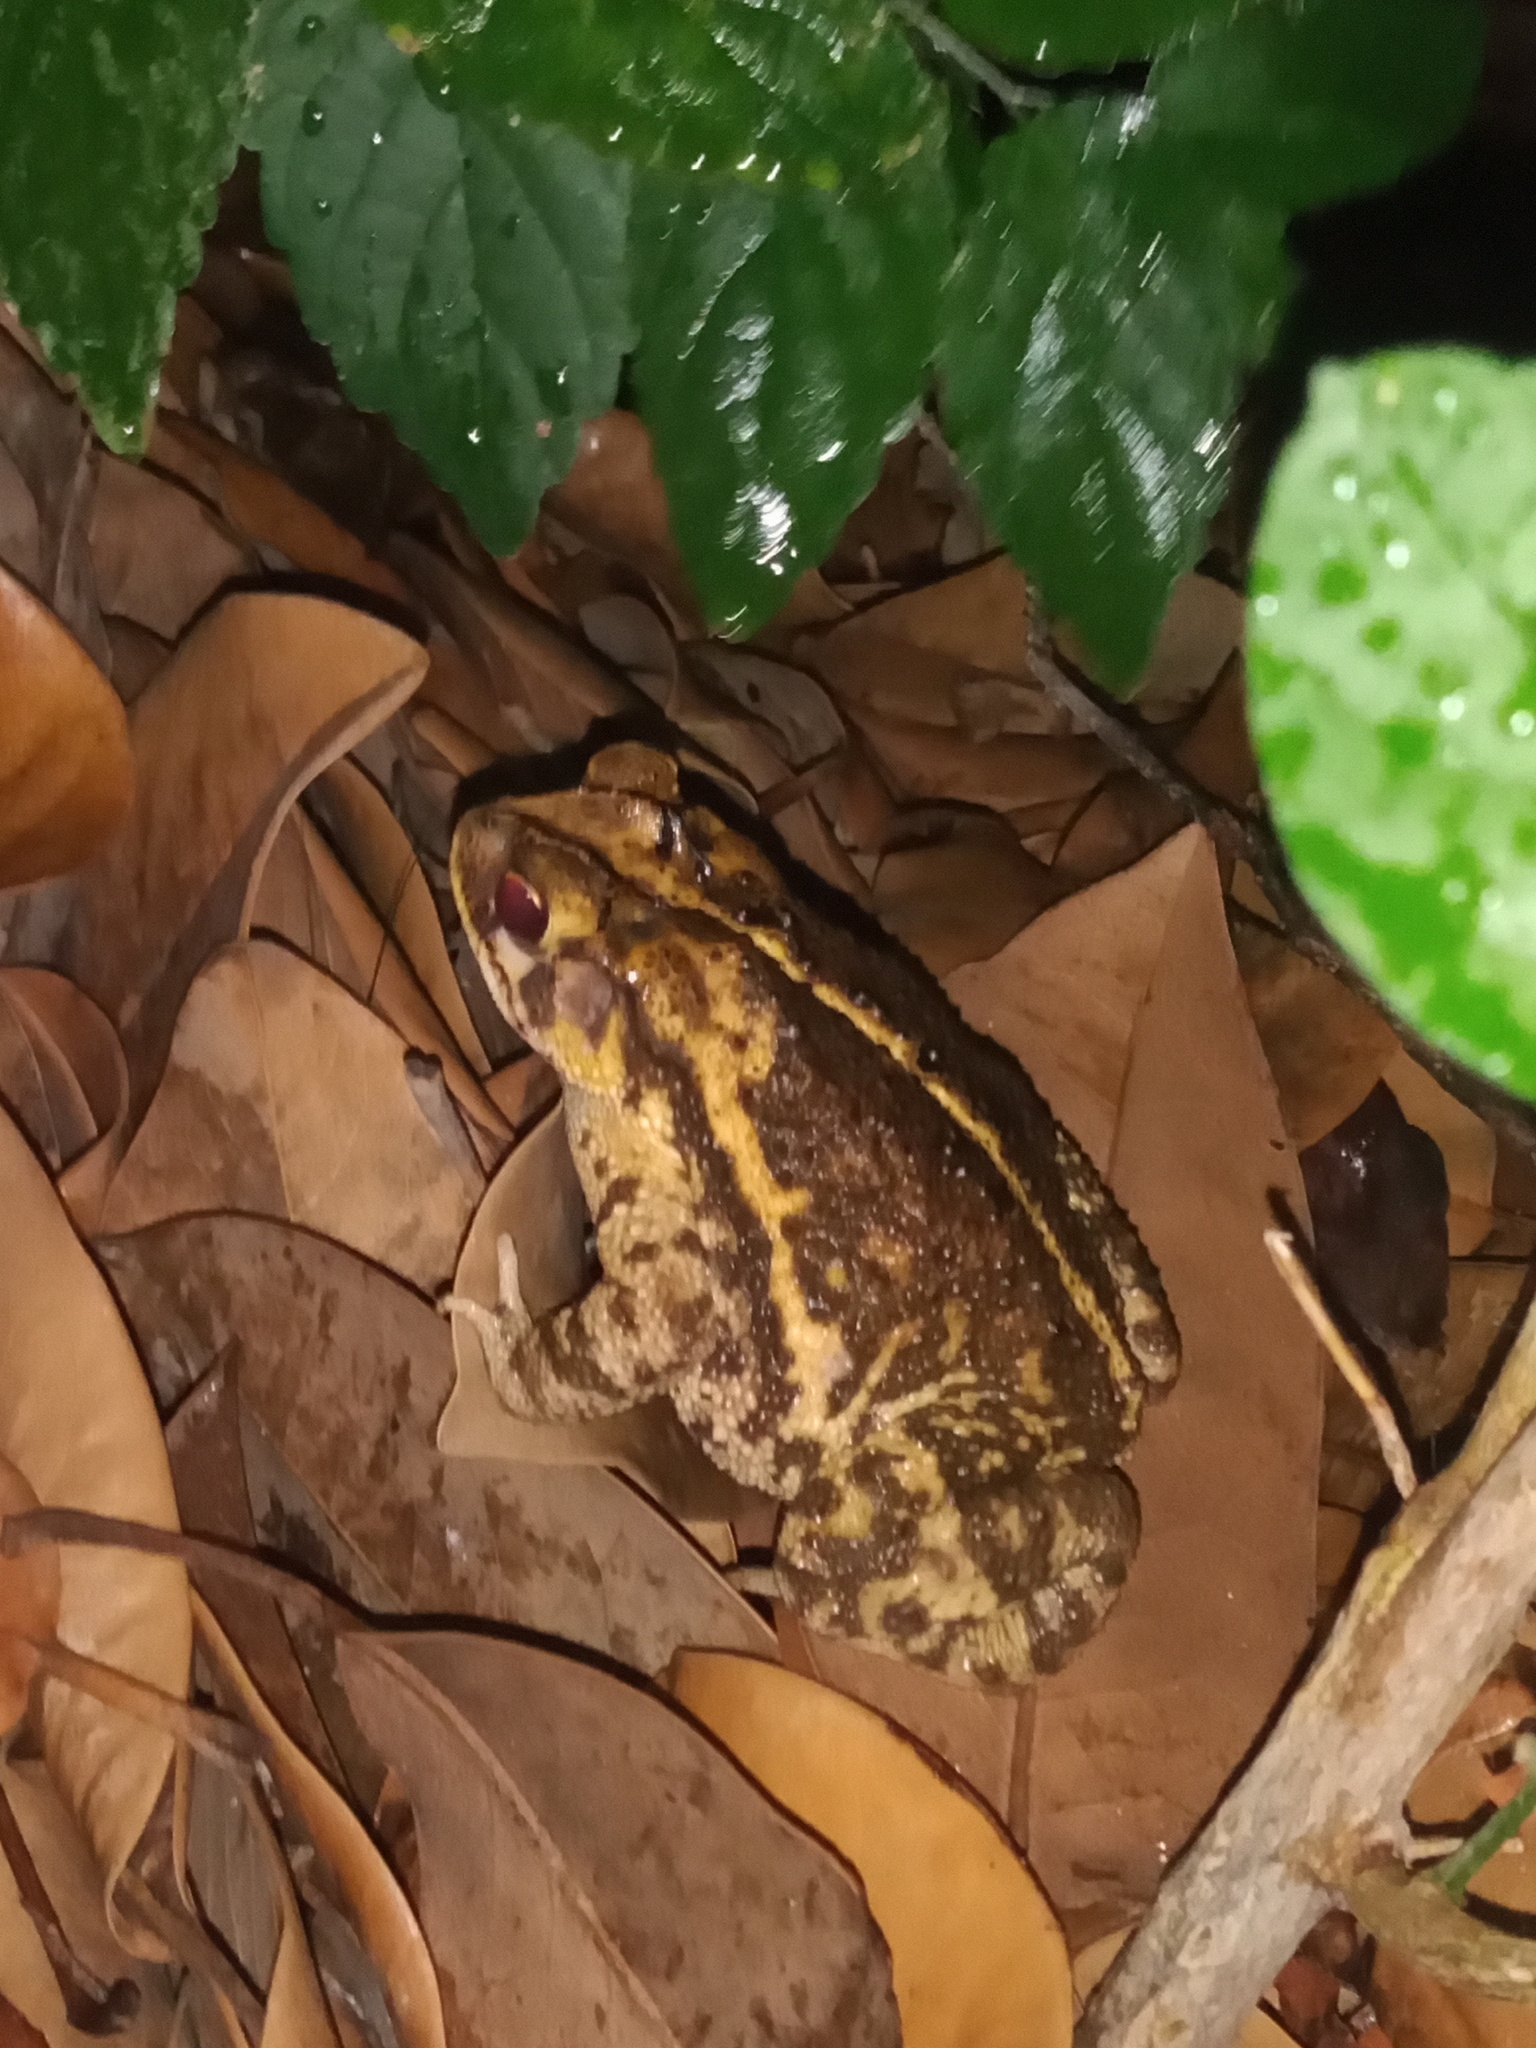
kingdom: Animalia
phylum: Chordata
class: Amphibia
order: Anura
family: Bufonidae
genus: Incilius
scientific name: Incilius nebulifer
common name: Gulf coast toad
